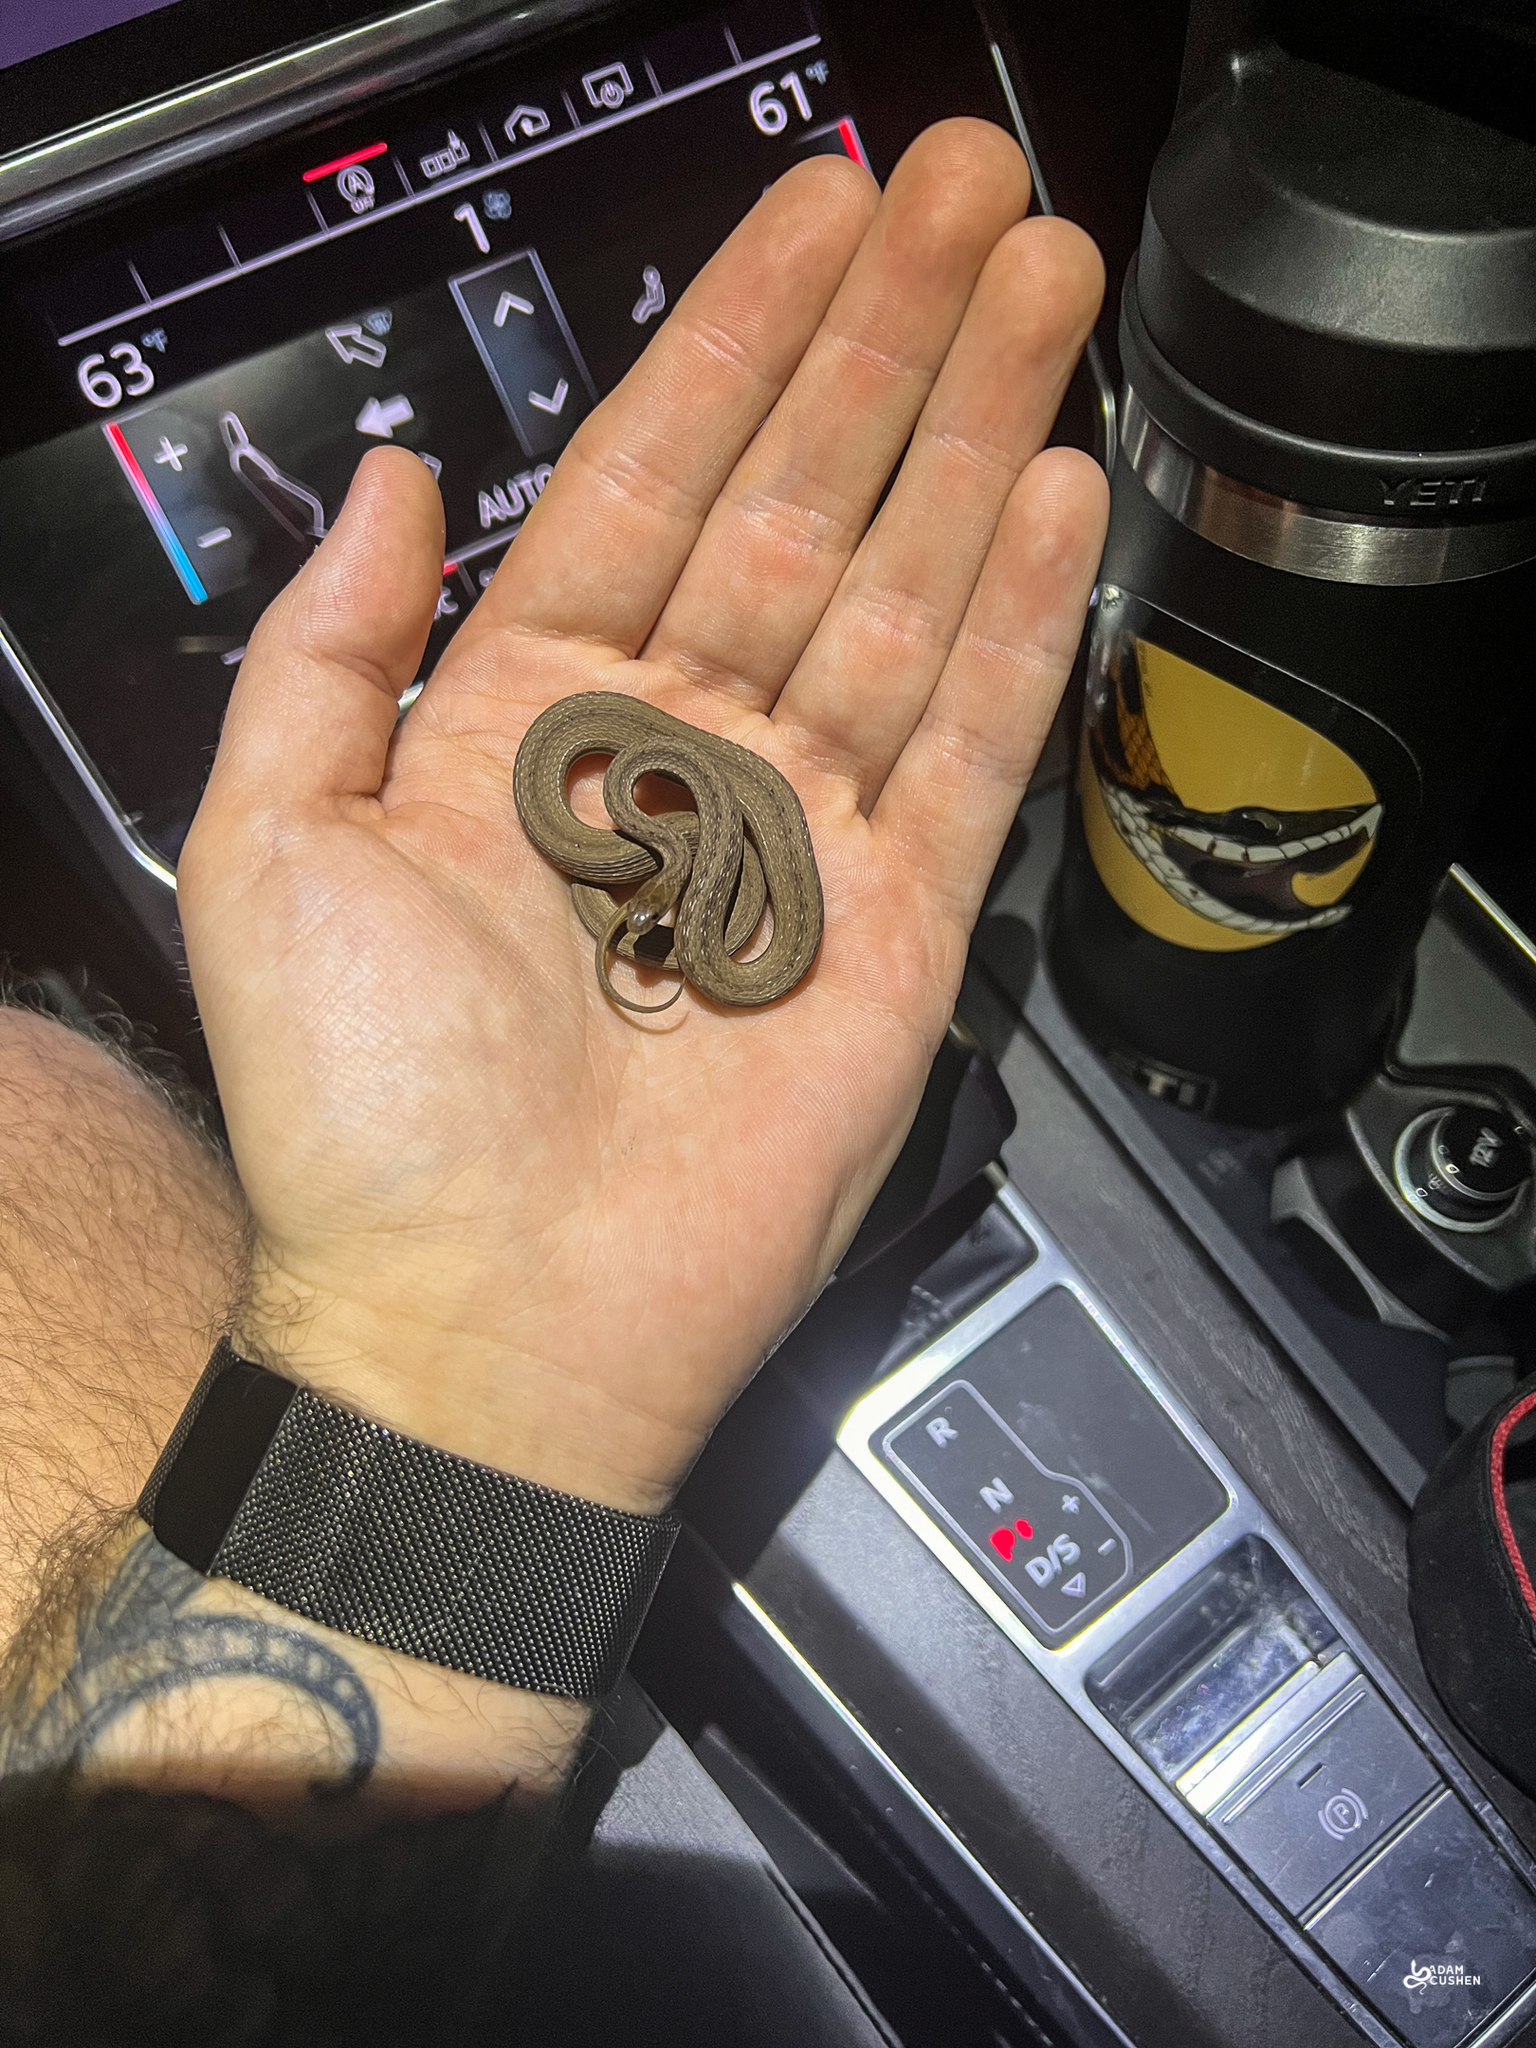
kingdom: Animalia
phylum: Chordata
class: Squamata
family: Colubridae
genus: Storeria
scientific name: Storeria victa
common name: Florida brown snake
